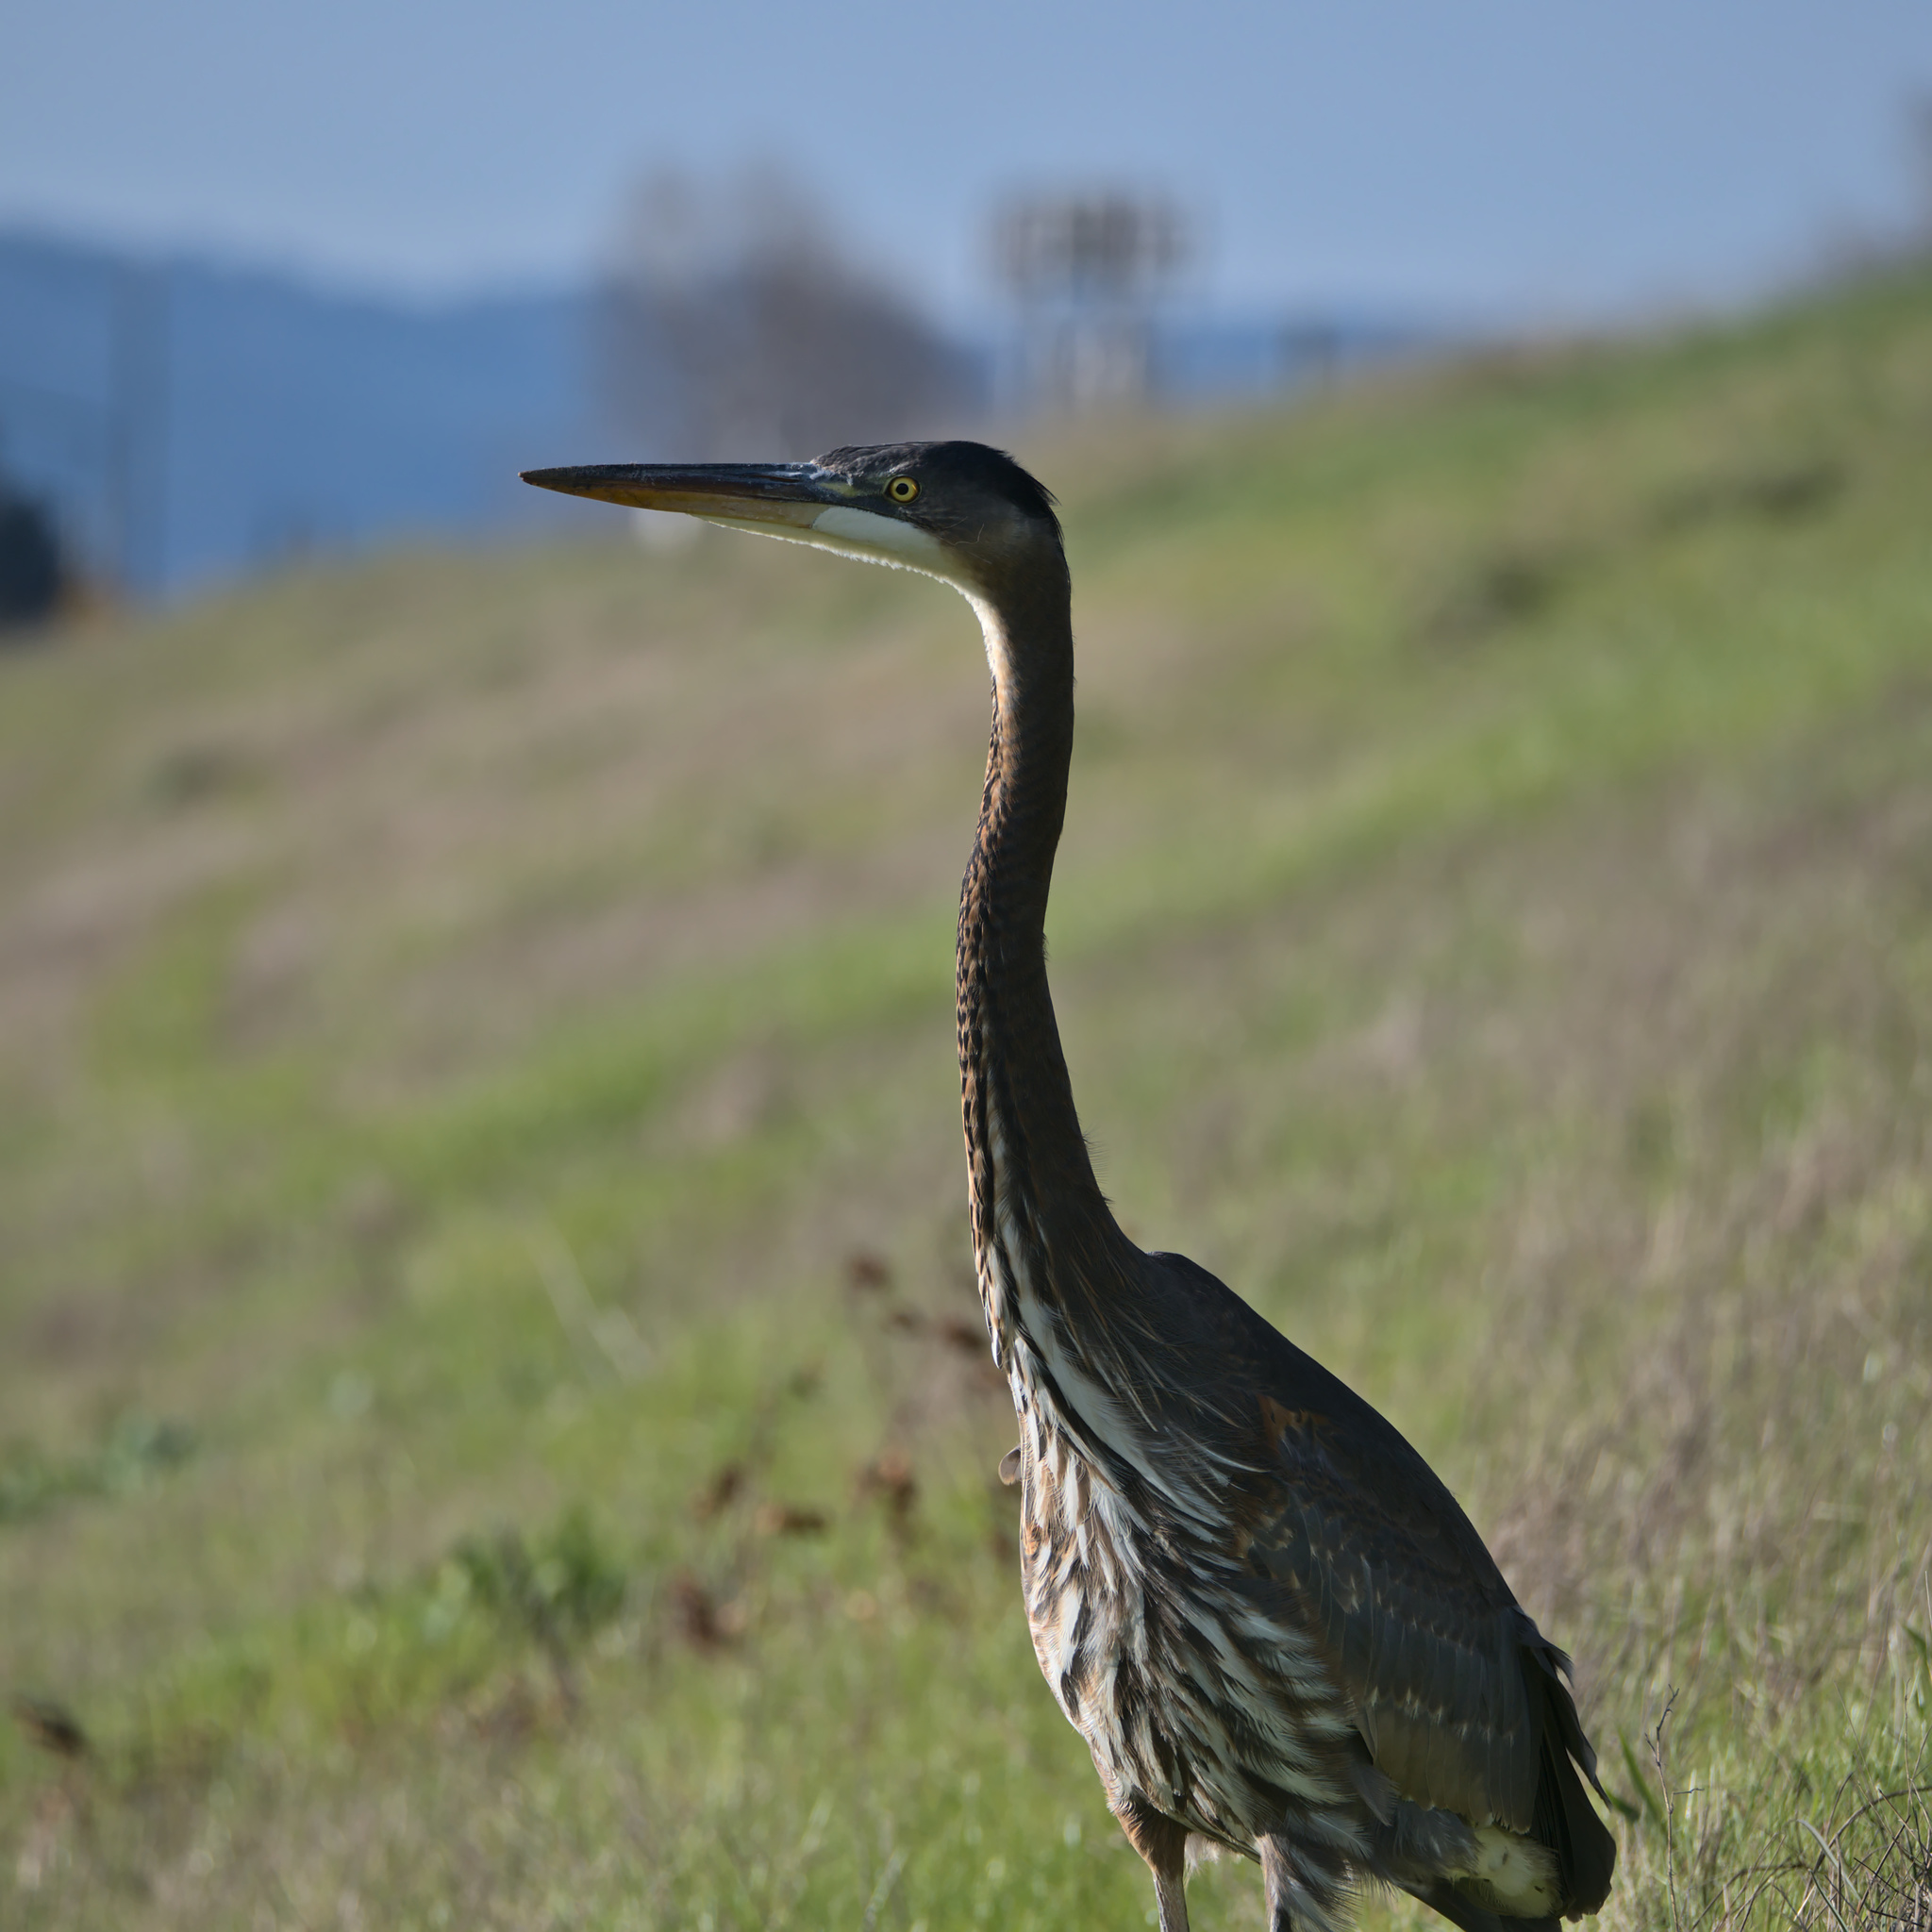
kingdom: Animalia
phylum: Chordata
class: Aves
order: Pelecaniformes
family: Ardeidae
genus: Ardea
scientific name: Ardea herodias
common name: Great blue heron
